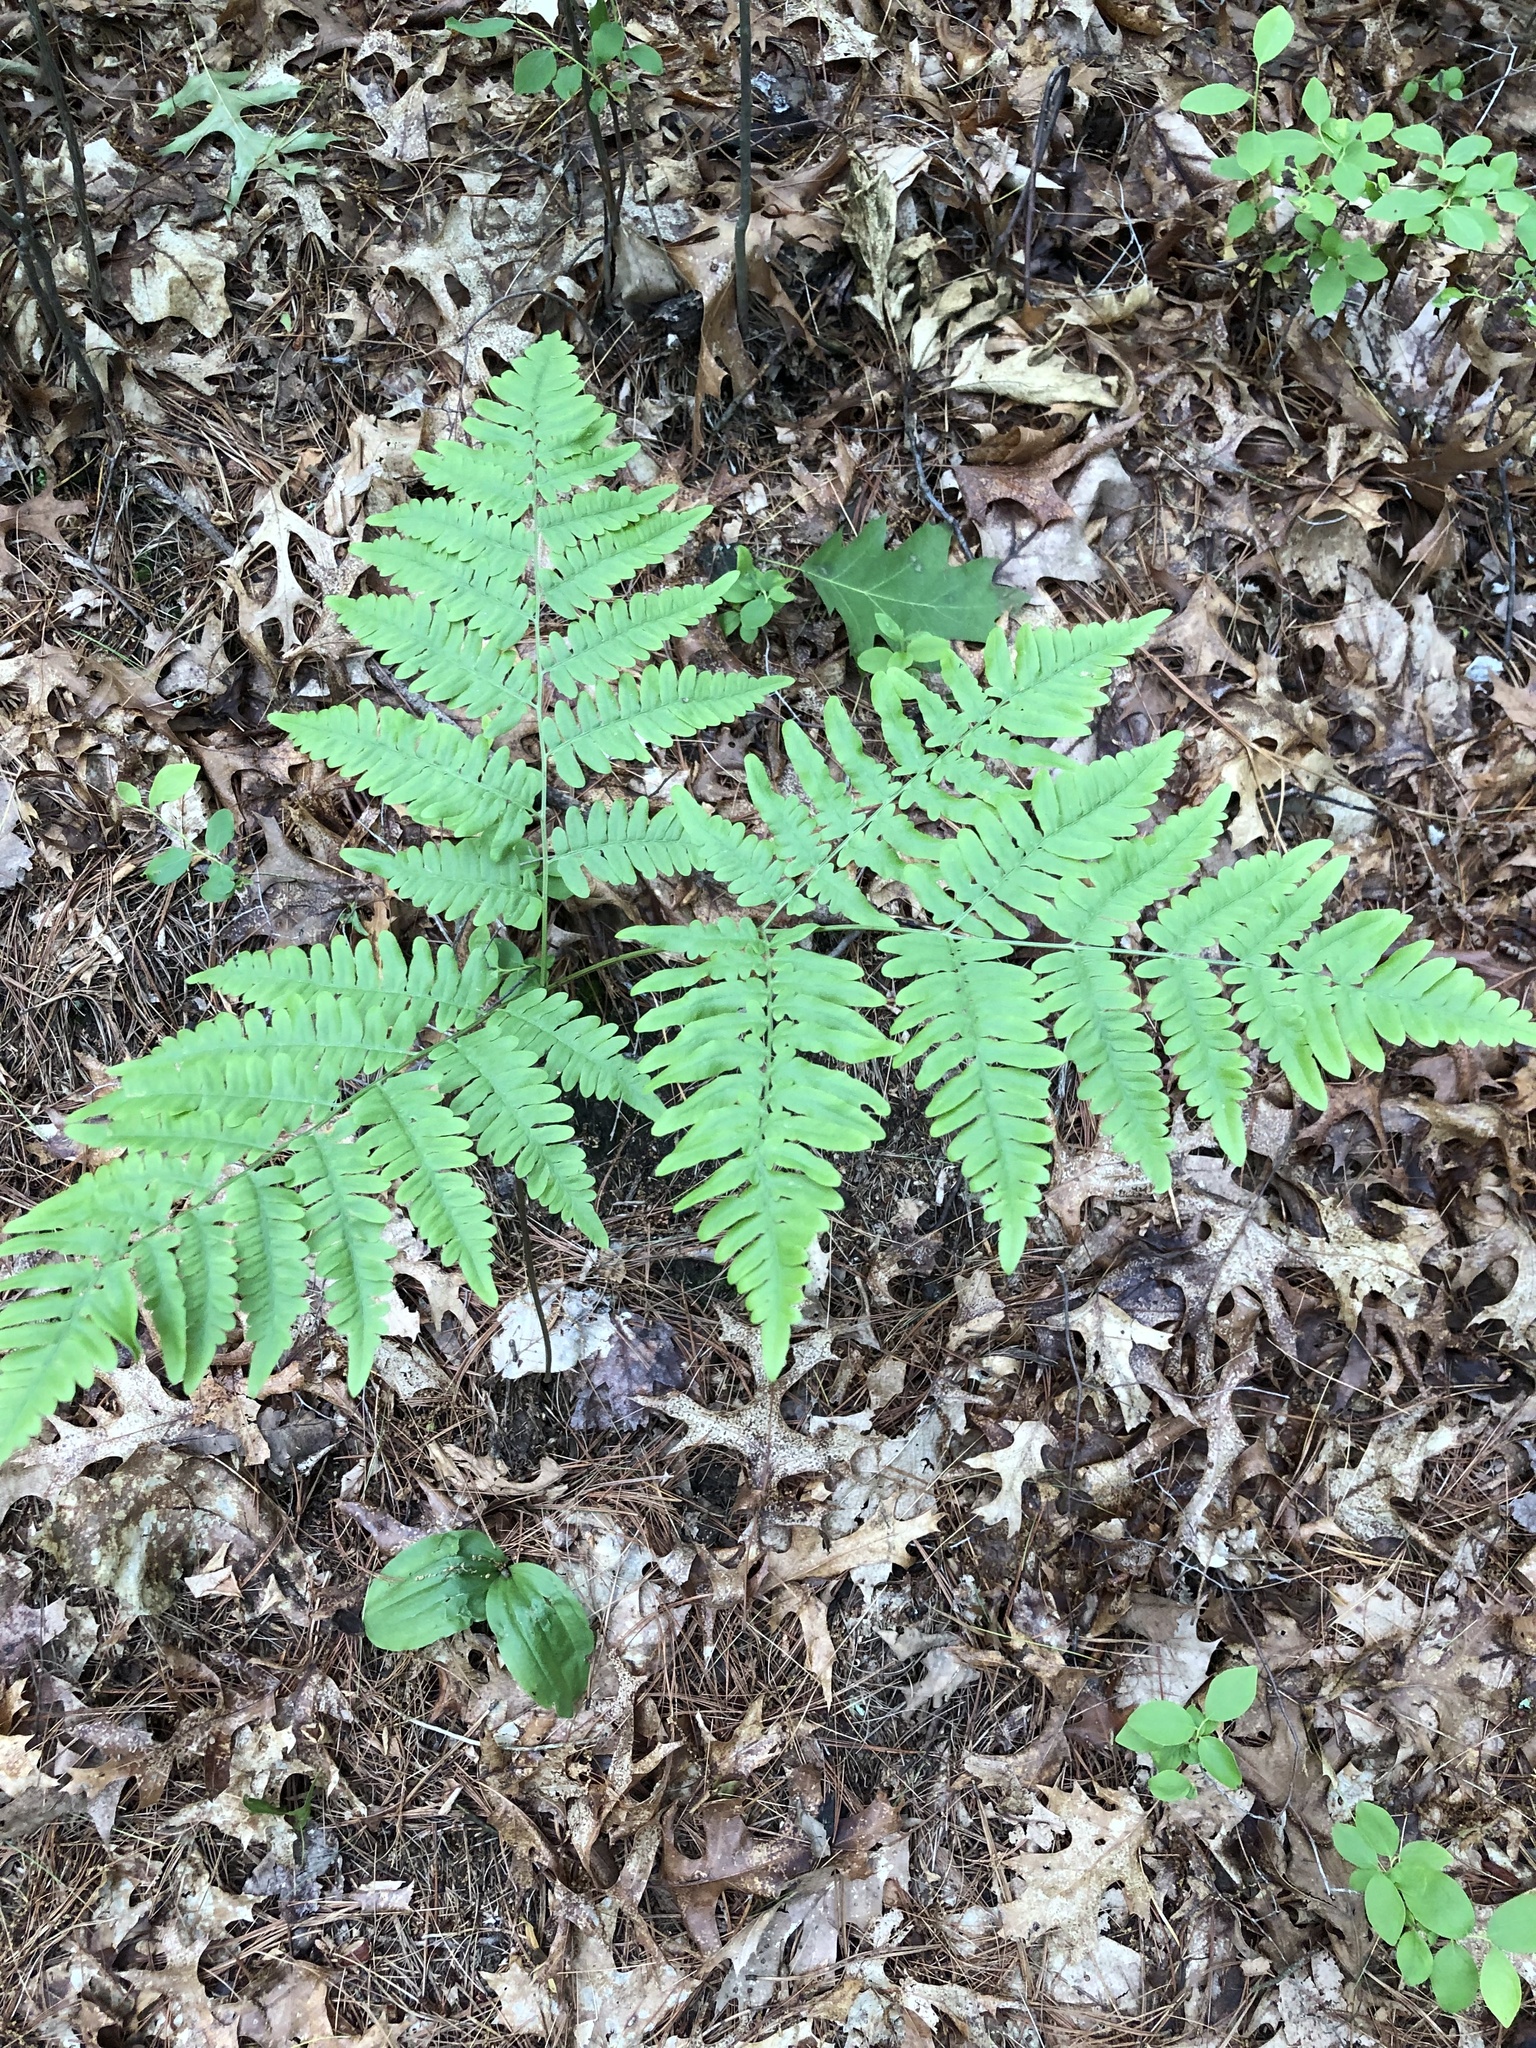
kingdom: Plantae
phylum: Tracheophyta
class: Polypodiopsida
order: Polypodiales
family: Dennstaedtiaceae
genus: Pteridium
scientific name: Pteridium aquilinum
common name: Bracken
